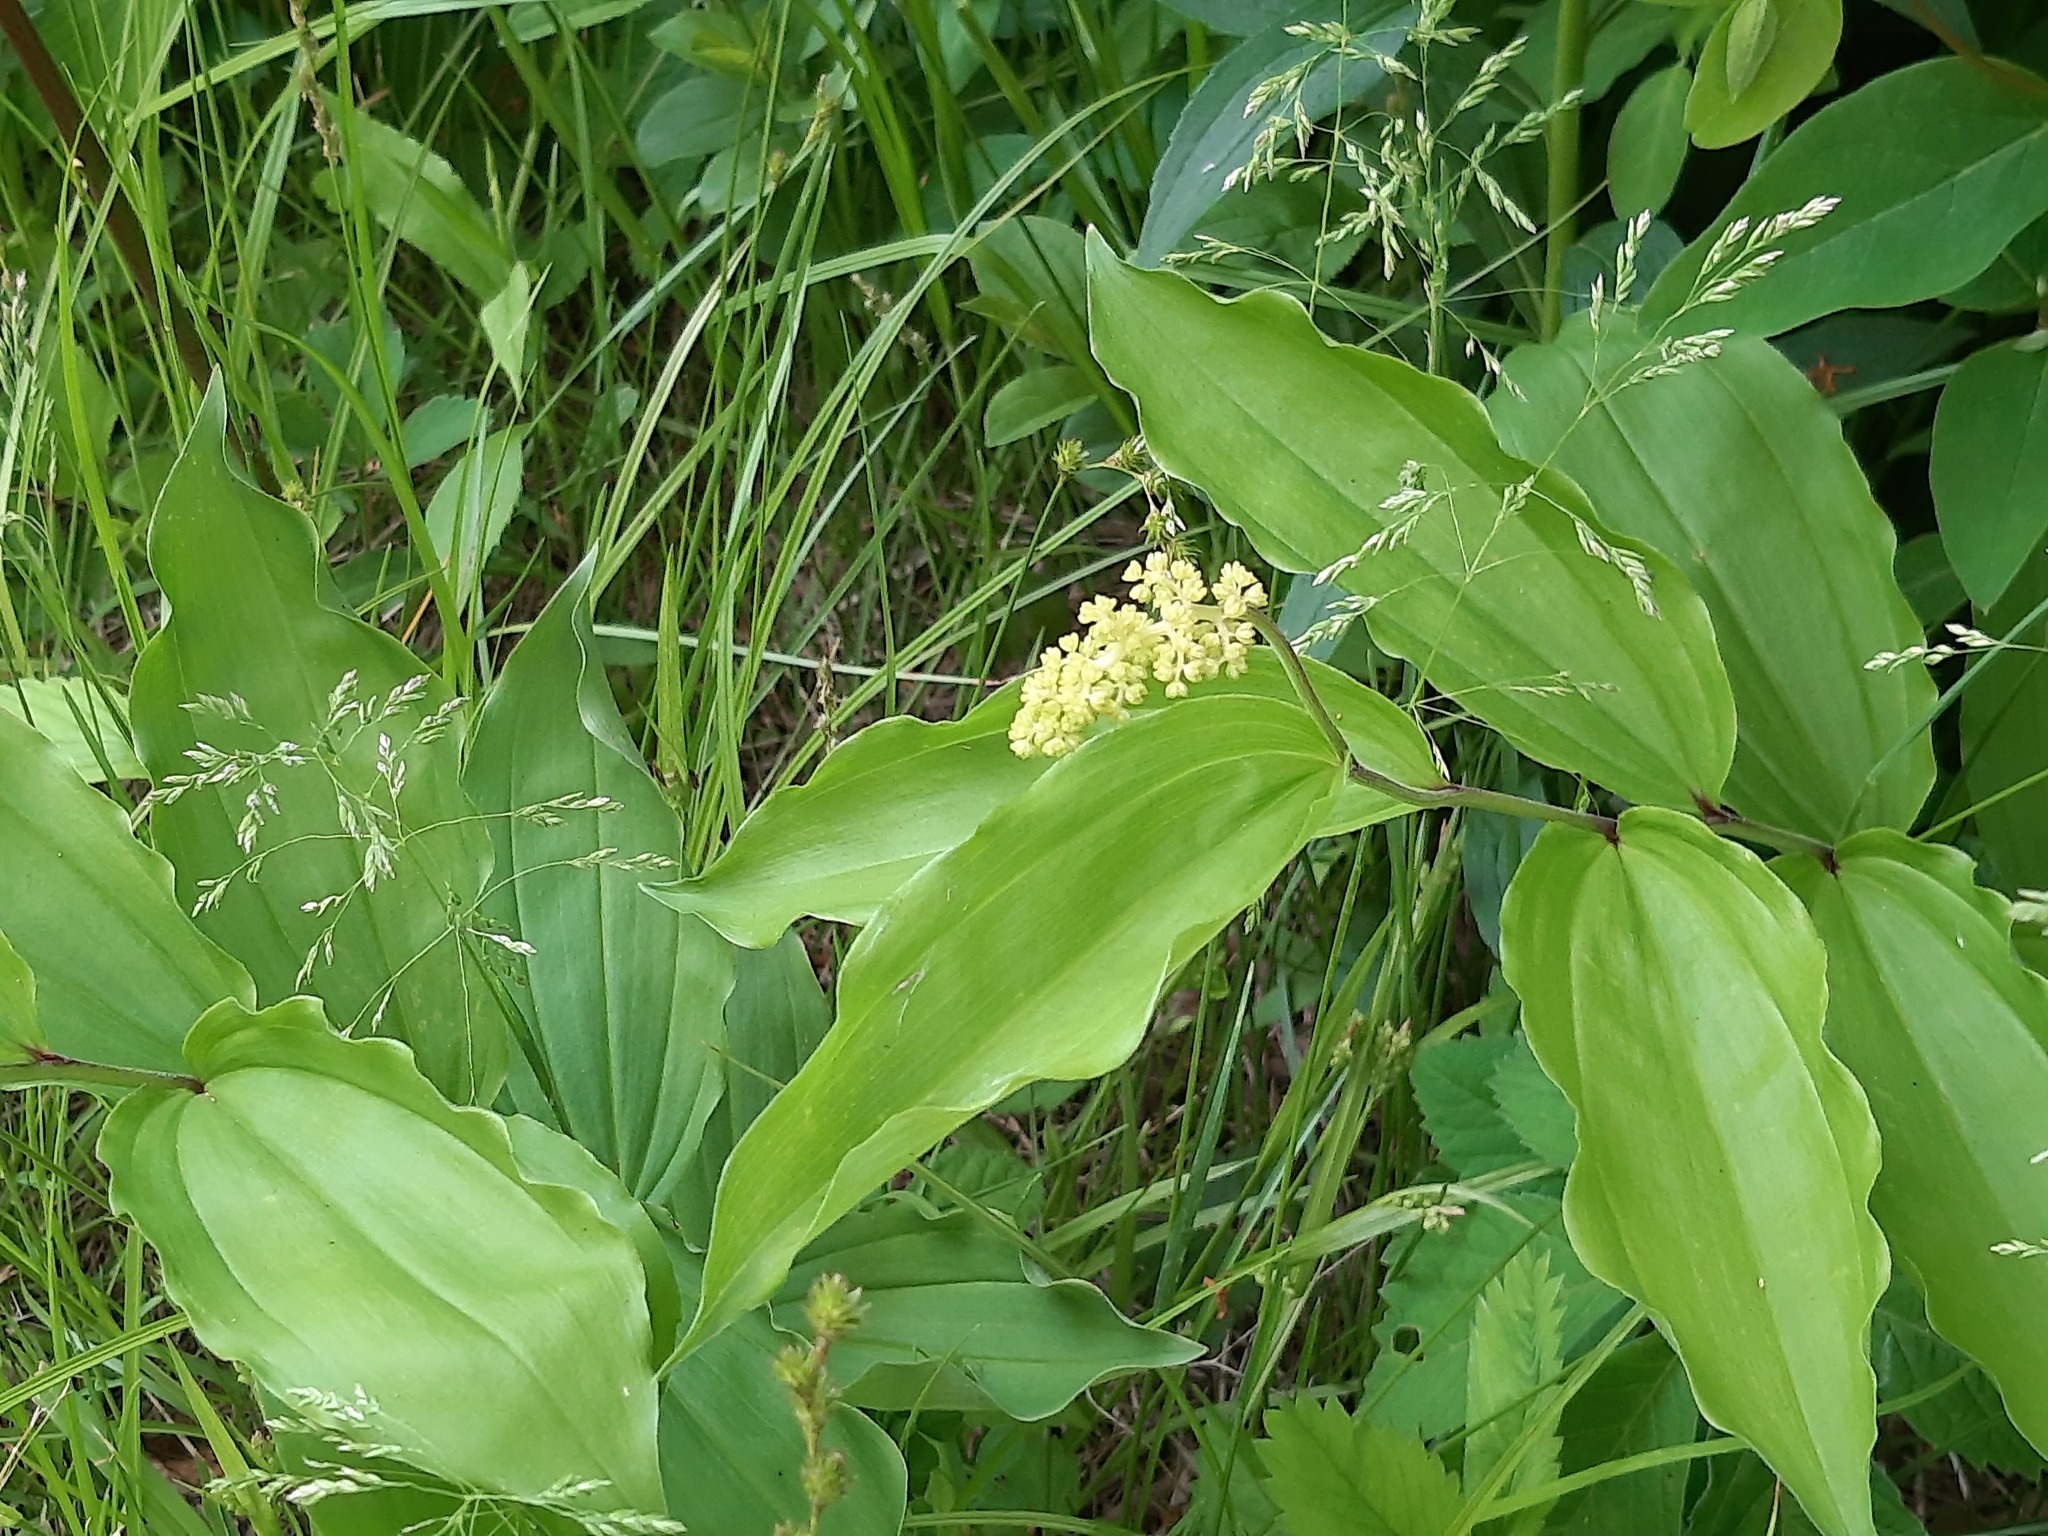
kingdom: Plantae
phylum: Tracheophyta
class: Liliopsida
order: Asparagales
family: Asparagaceae
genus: Maianthemum
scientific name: Maianthemum racemosum
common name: False spikenard
